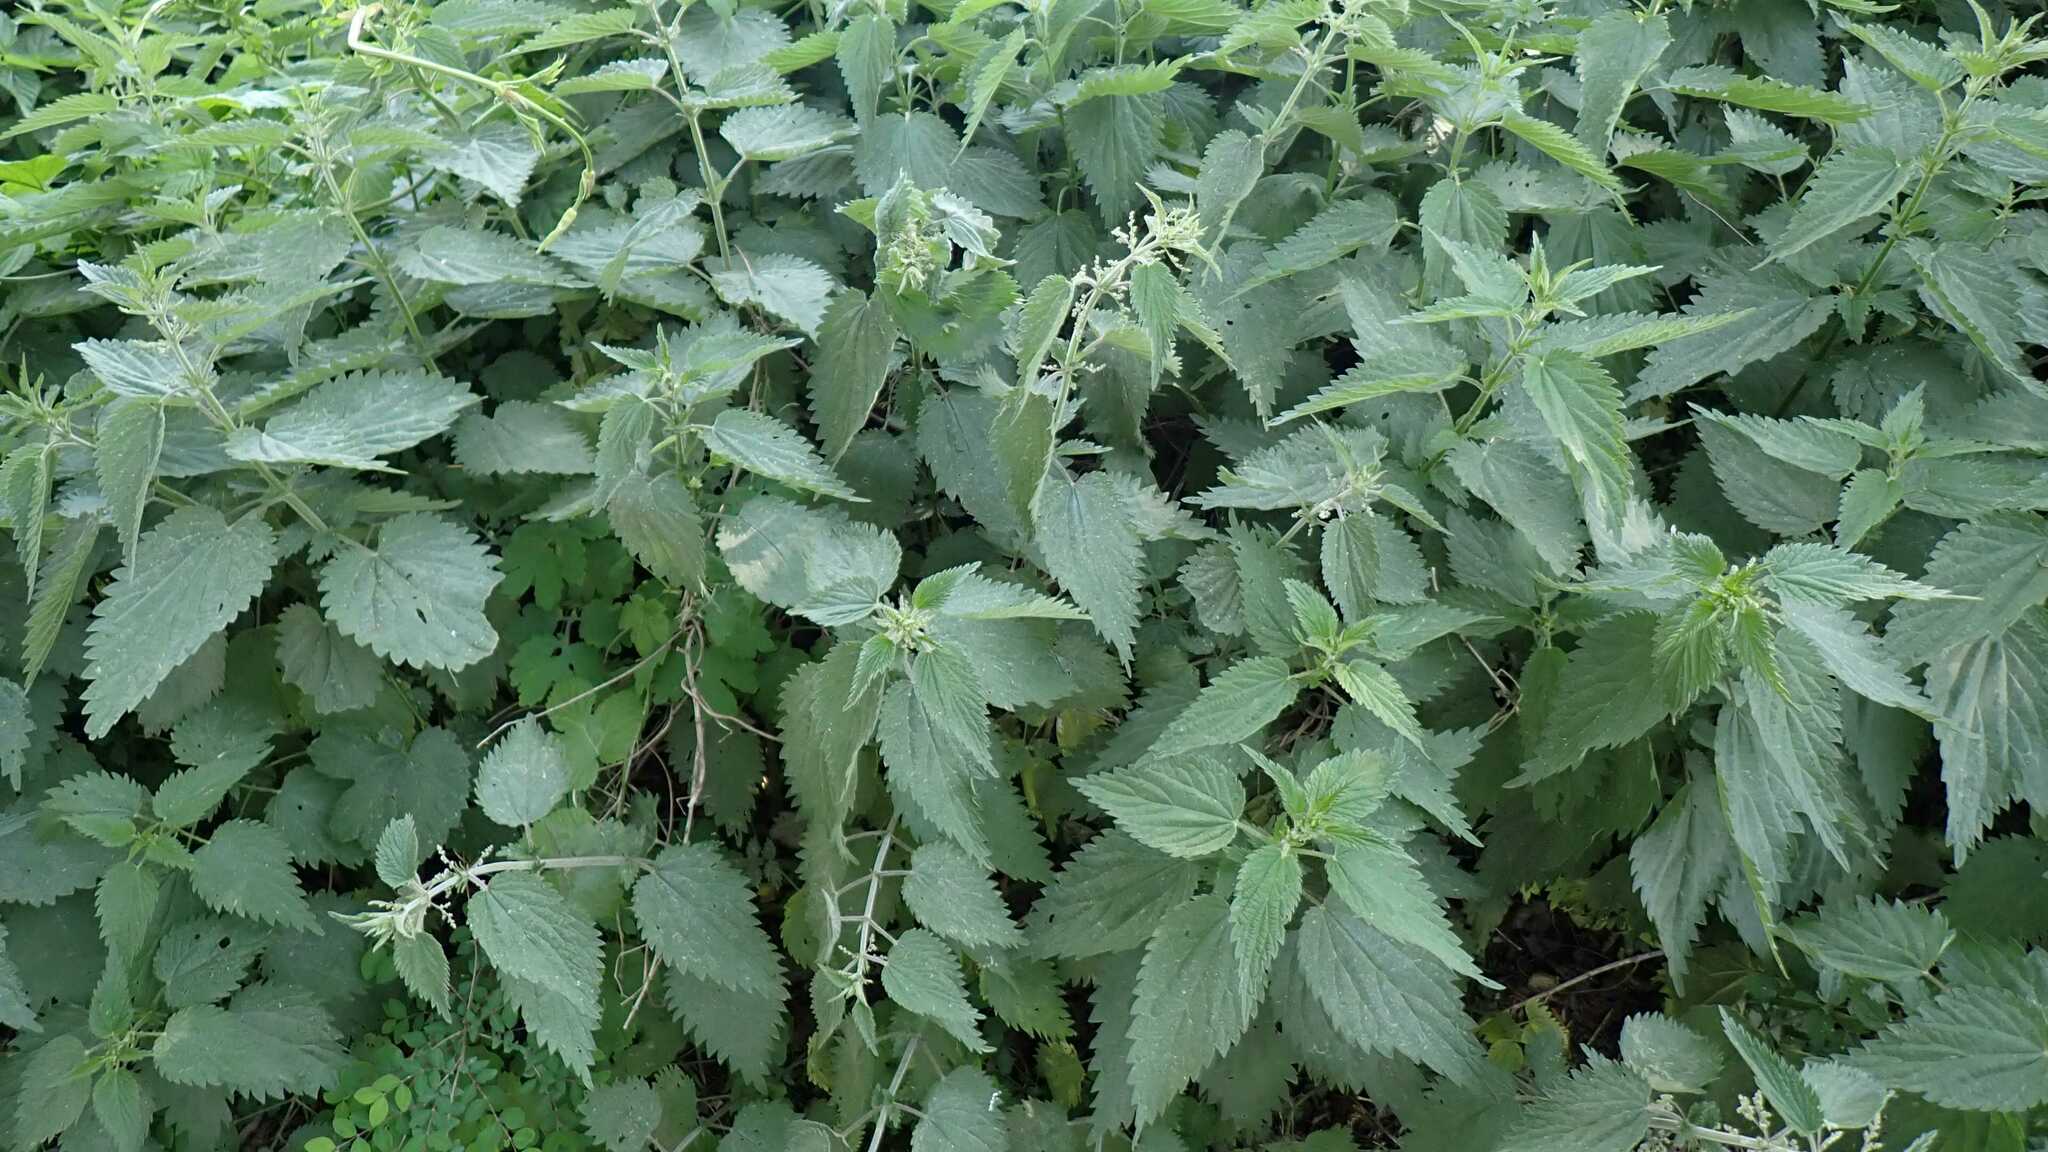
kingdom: Plantae
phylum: Tracheophyta
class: Magnoliopsida
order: Rosales
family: Urticaceae
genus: Urtica
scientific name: Urtica dioica
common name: Common nettle
